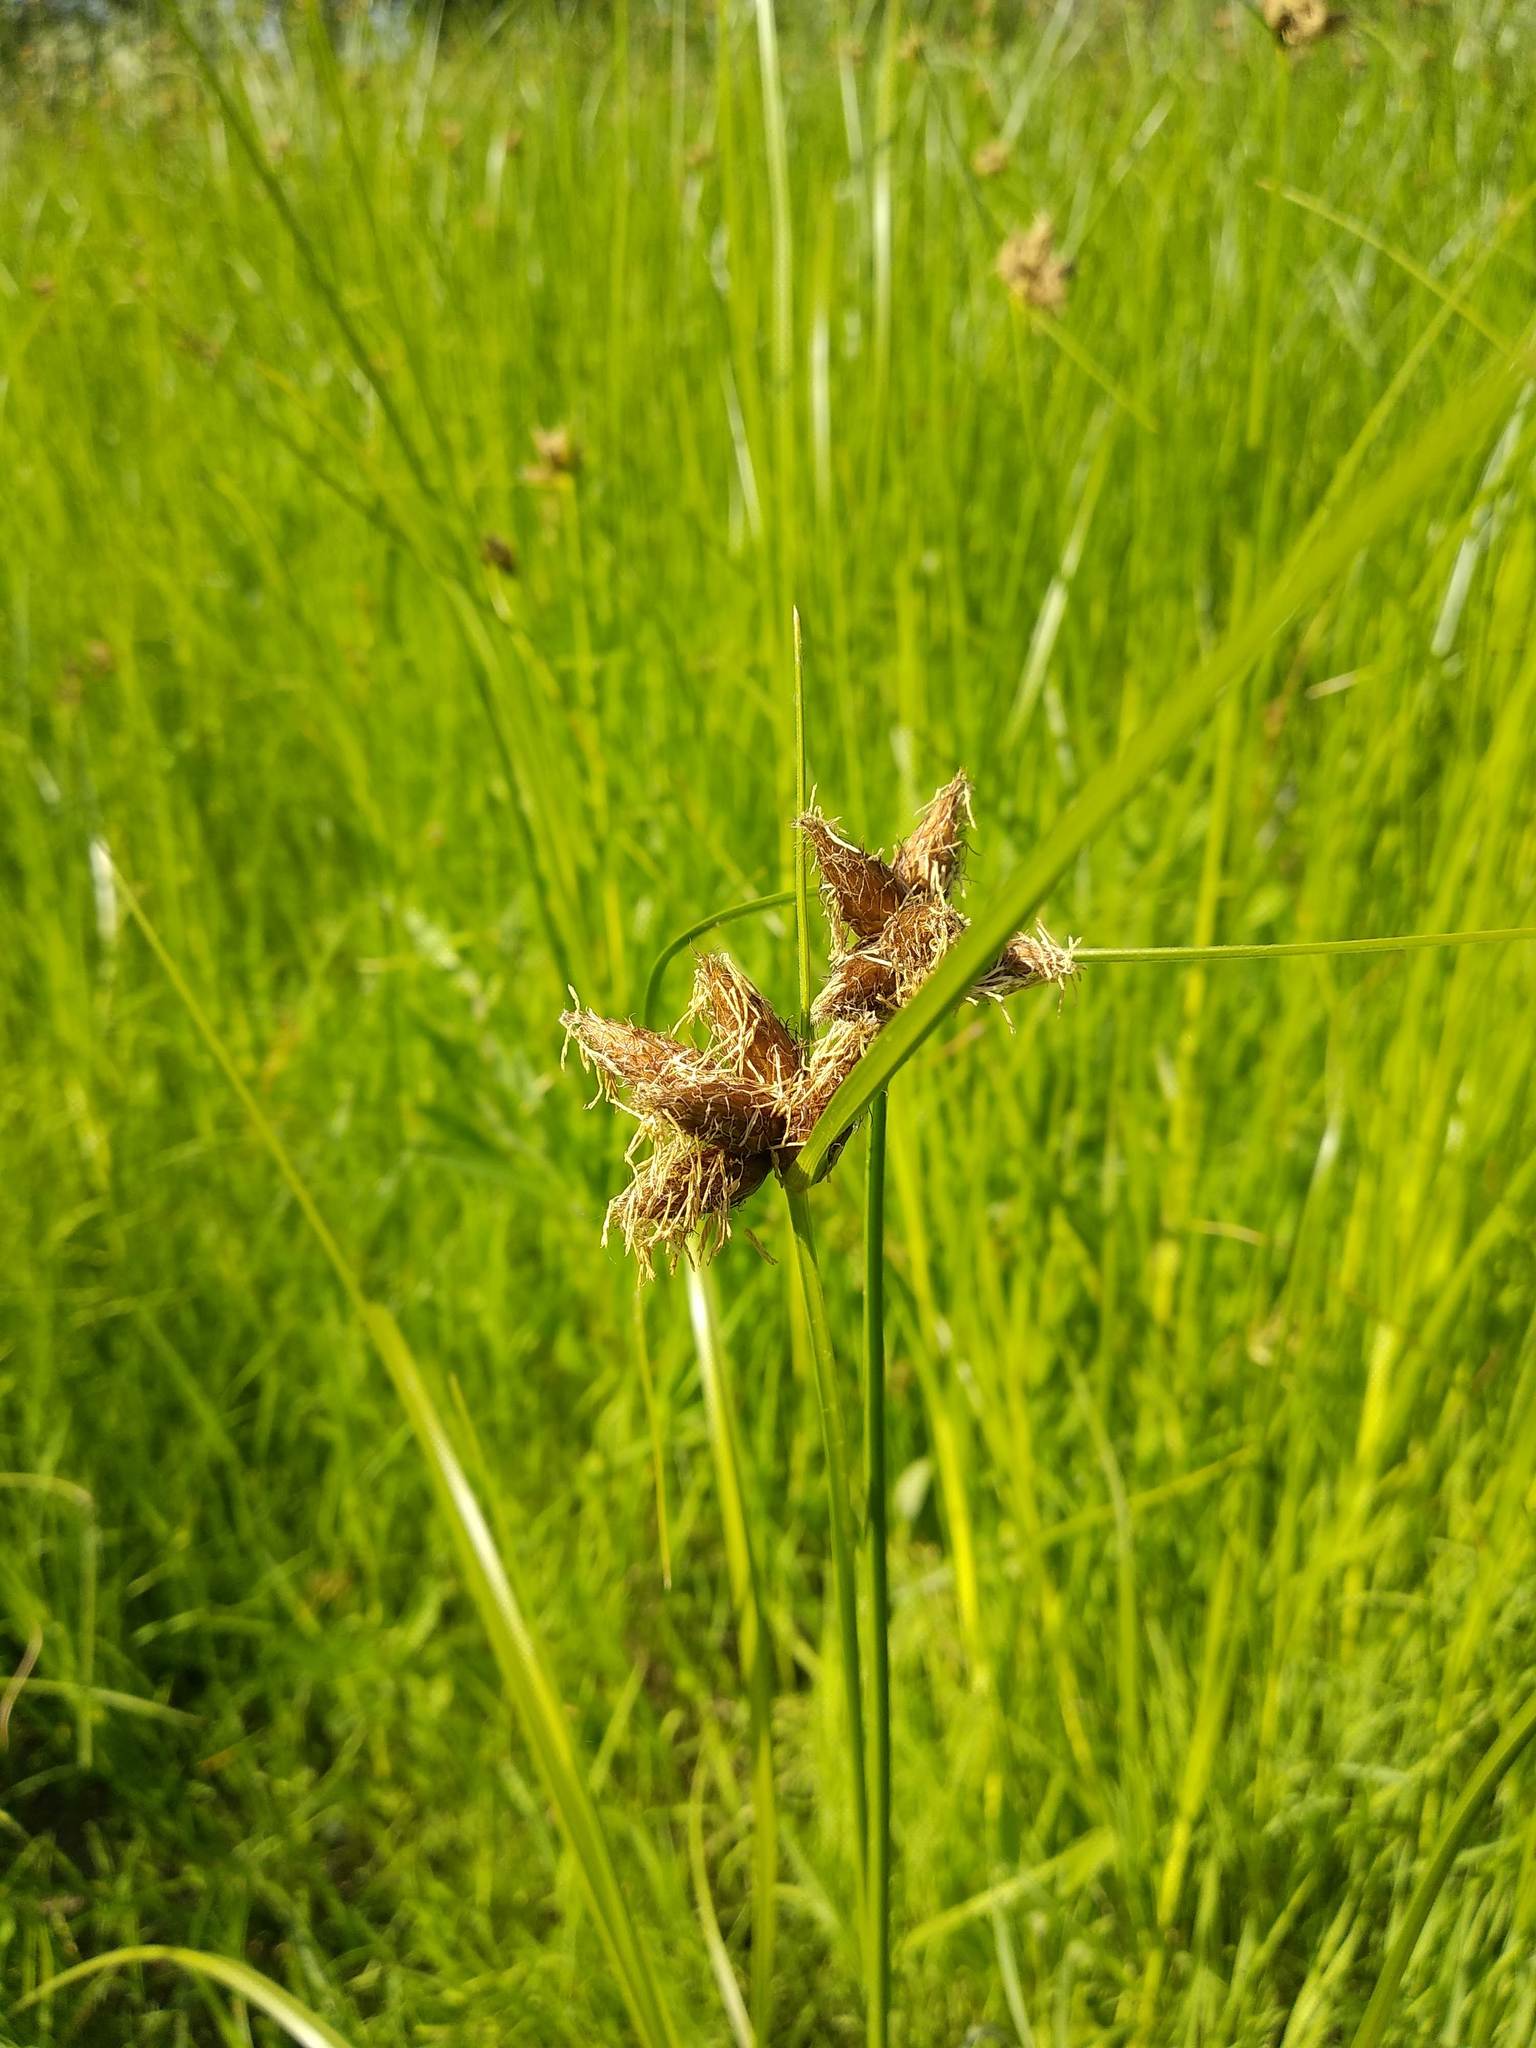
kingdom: Plantae
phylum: Tracheophyta
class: Liliopsida
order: Poales
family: Cyperaceae
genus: Bolboschoenus
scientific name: Bolboschoenus maritimus
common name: Sea club-rush
